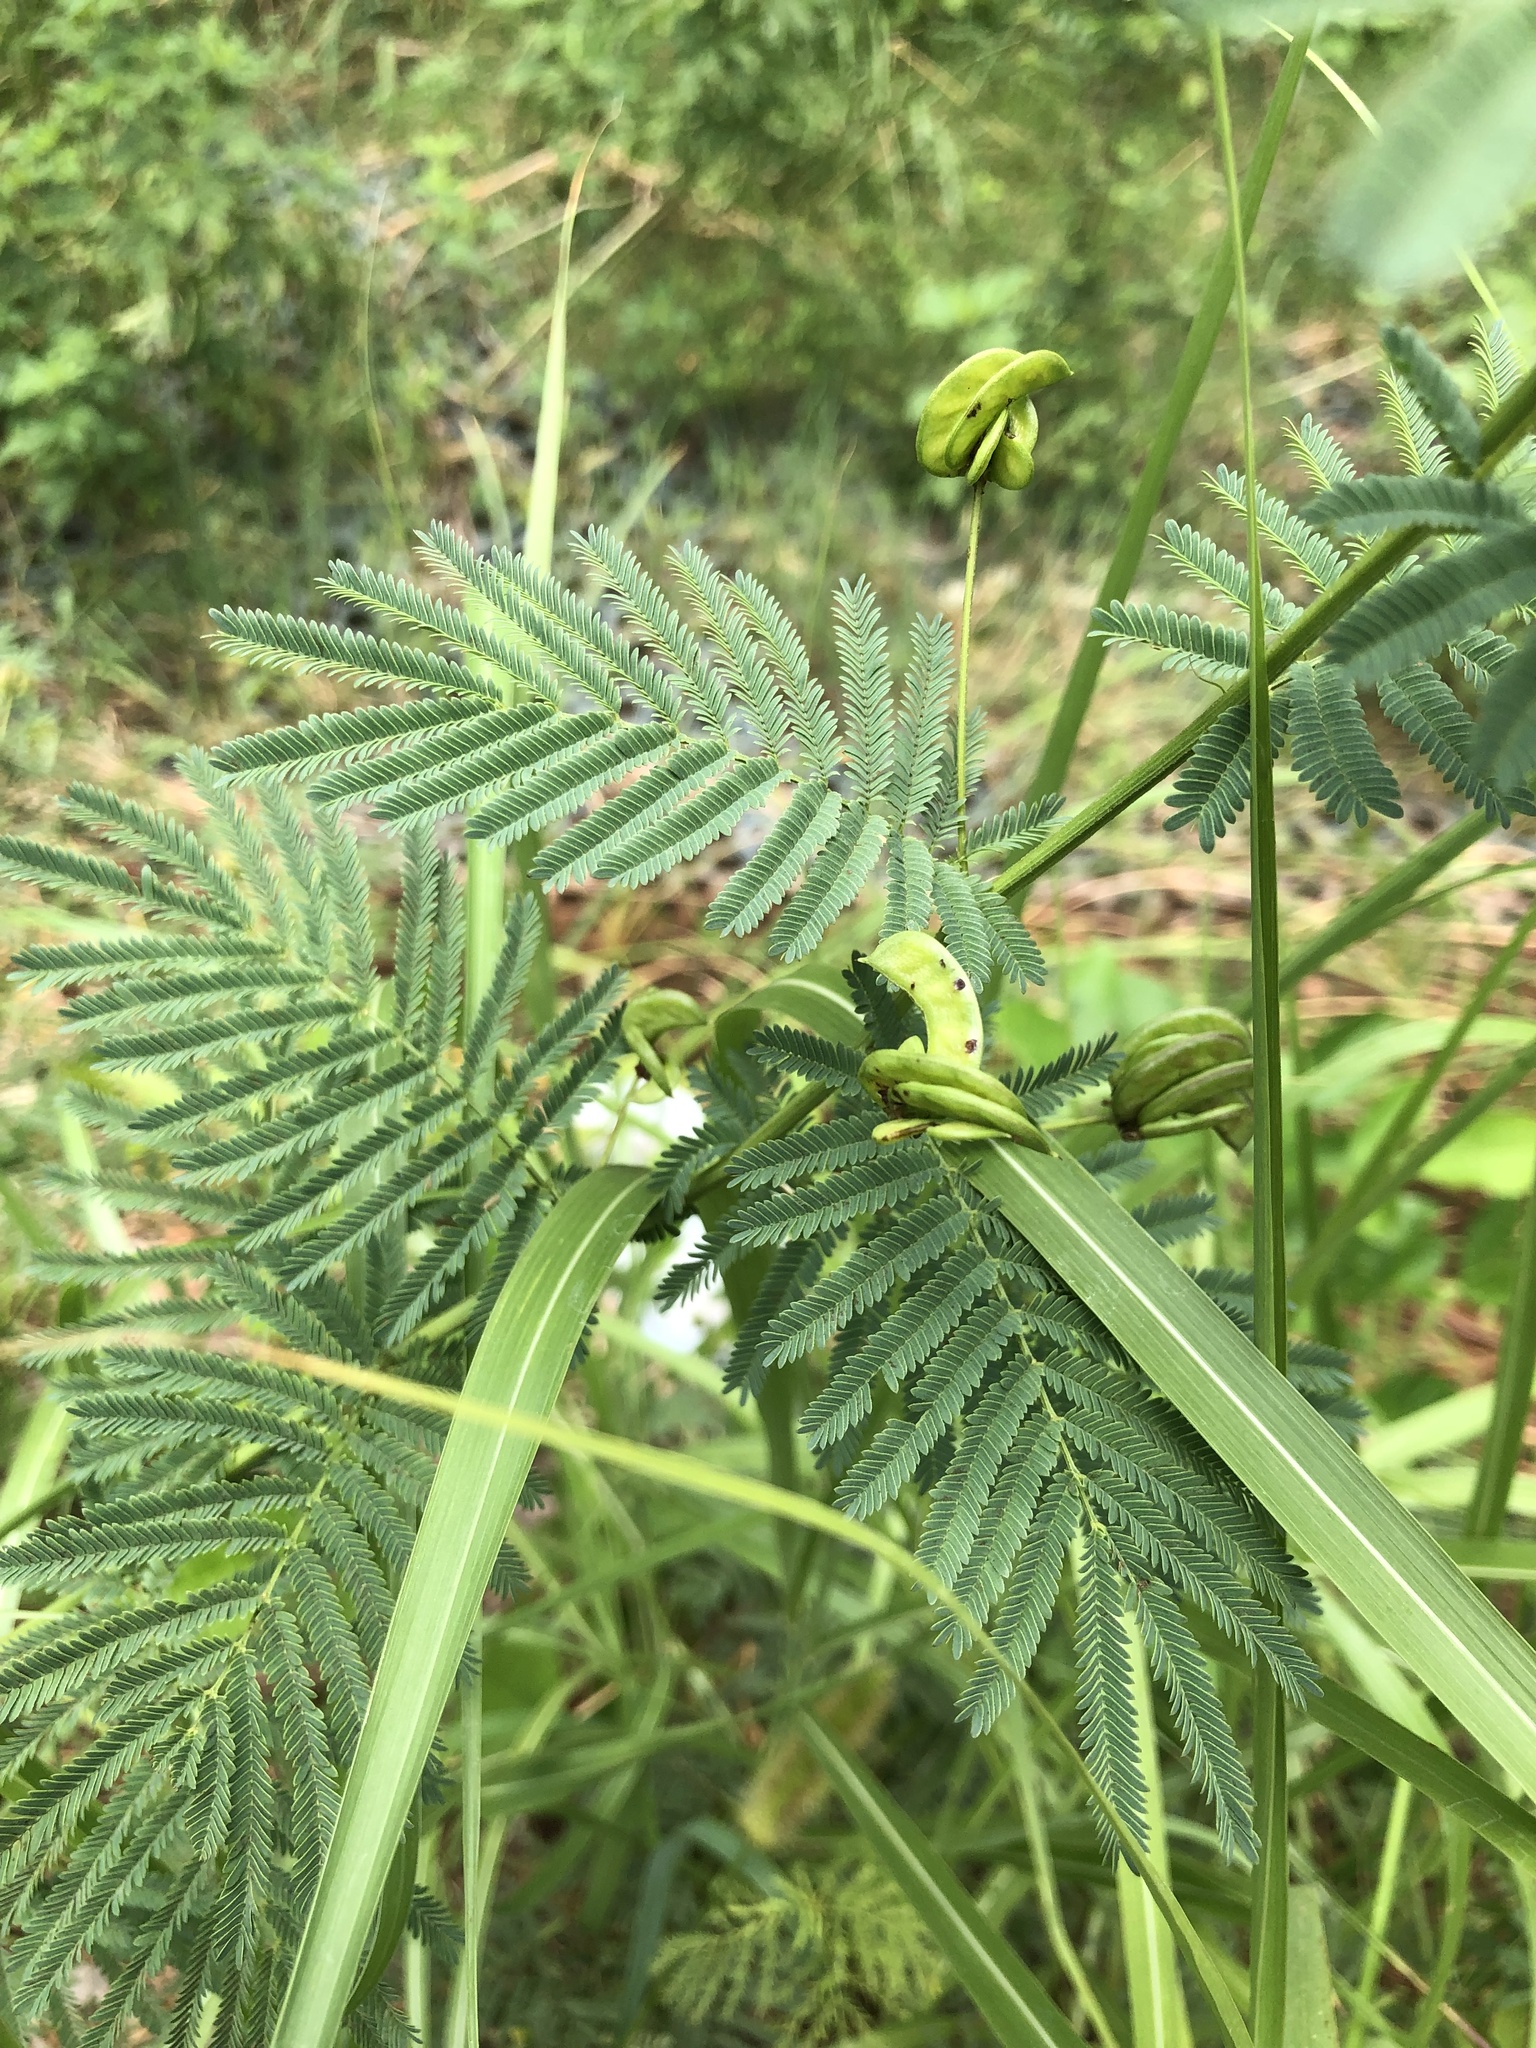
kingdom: Plantae
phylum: Tracheophyta
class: Magnoliopsida
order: Fabales
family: Fabaceae
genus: Desmanthus
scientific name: Desmanthus illinoensis
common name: Illinois bundle-flower
